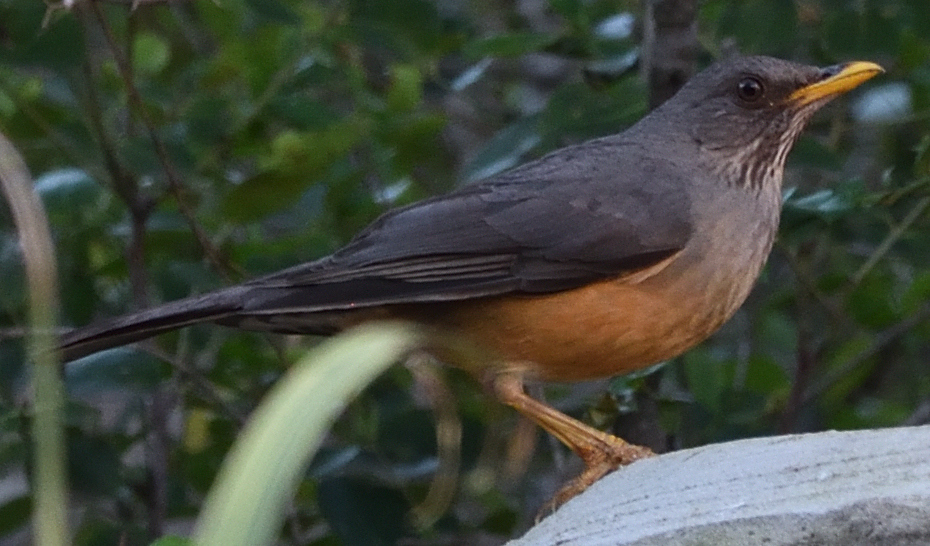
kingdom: Animalia
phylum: Chordata
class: Aves
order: Passeriformes
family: Turdidae
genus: Turdus
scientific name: Turdus olivaceus
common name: Olive thrush
